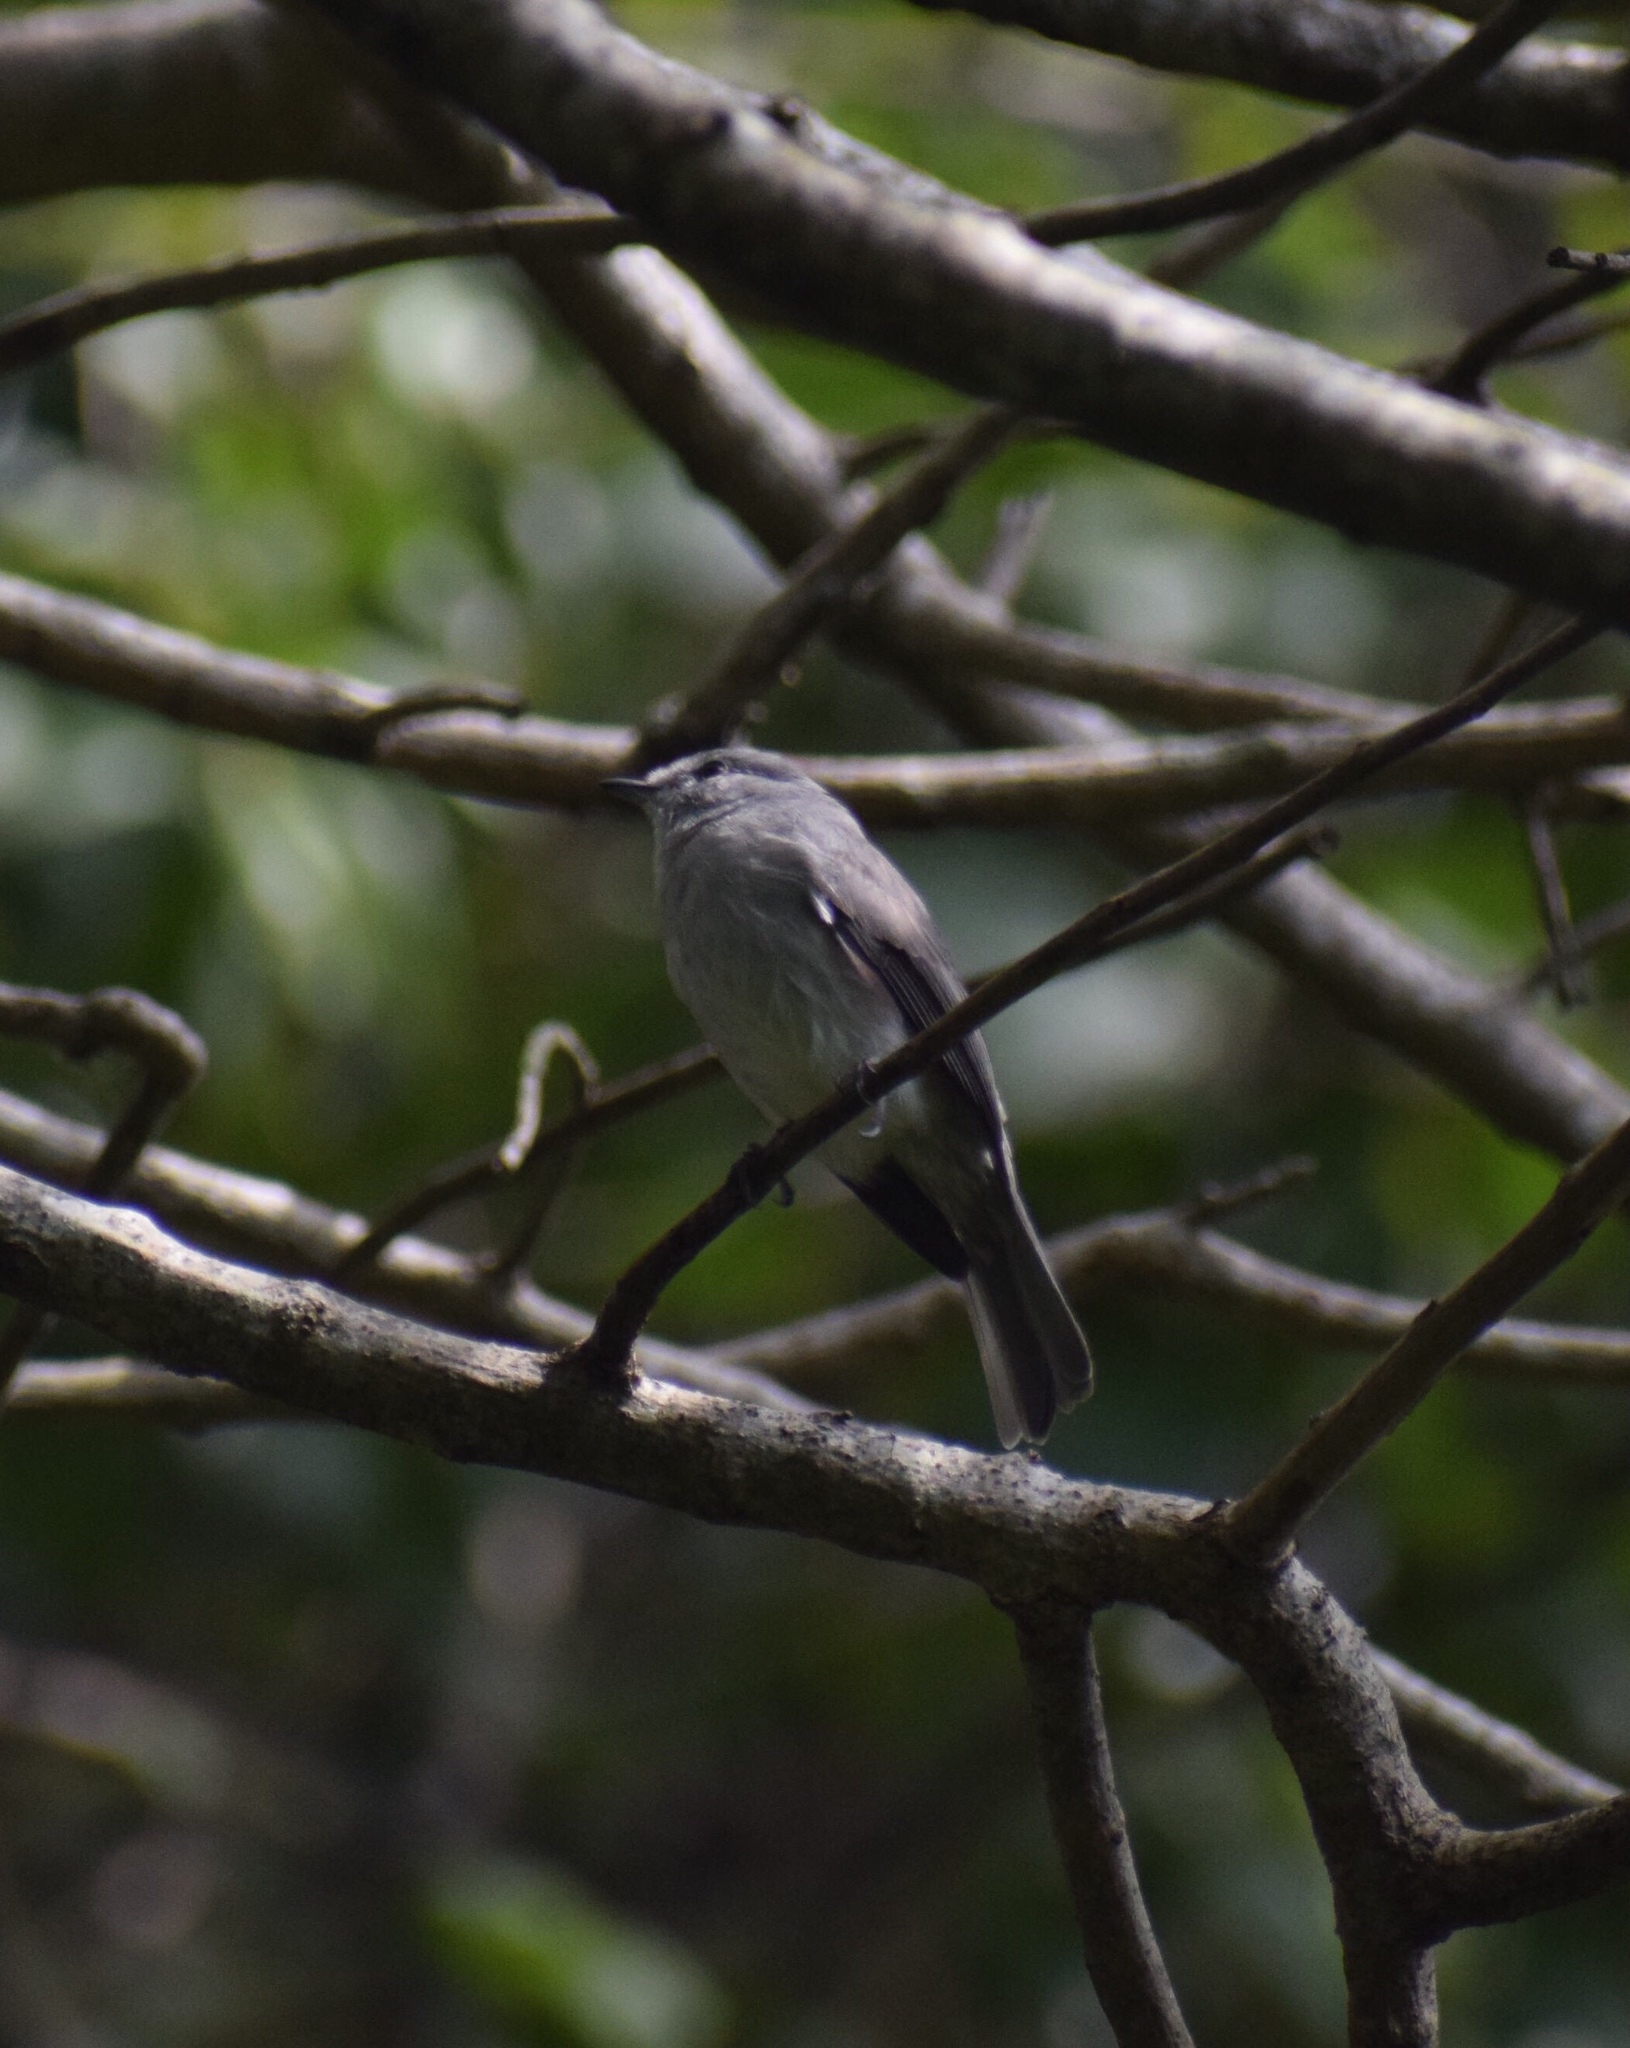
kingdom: Animalia
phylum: Chordata
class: Aves
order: Passeriformes
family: Muscicapidae
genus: Muscicapa
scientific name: Muscicapa caerulescens
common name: Ashy flycatcher
